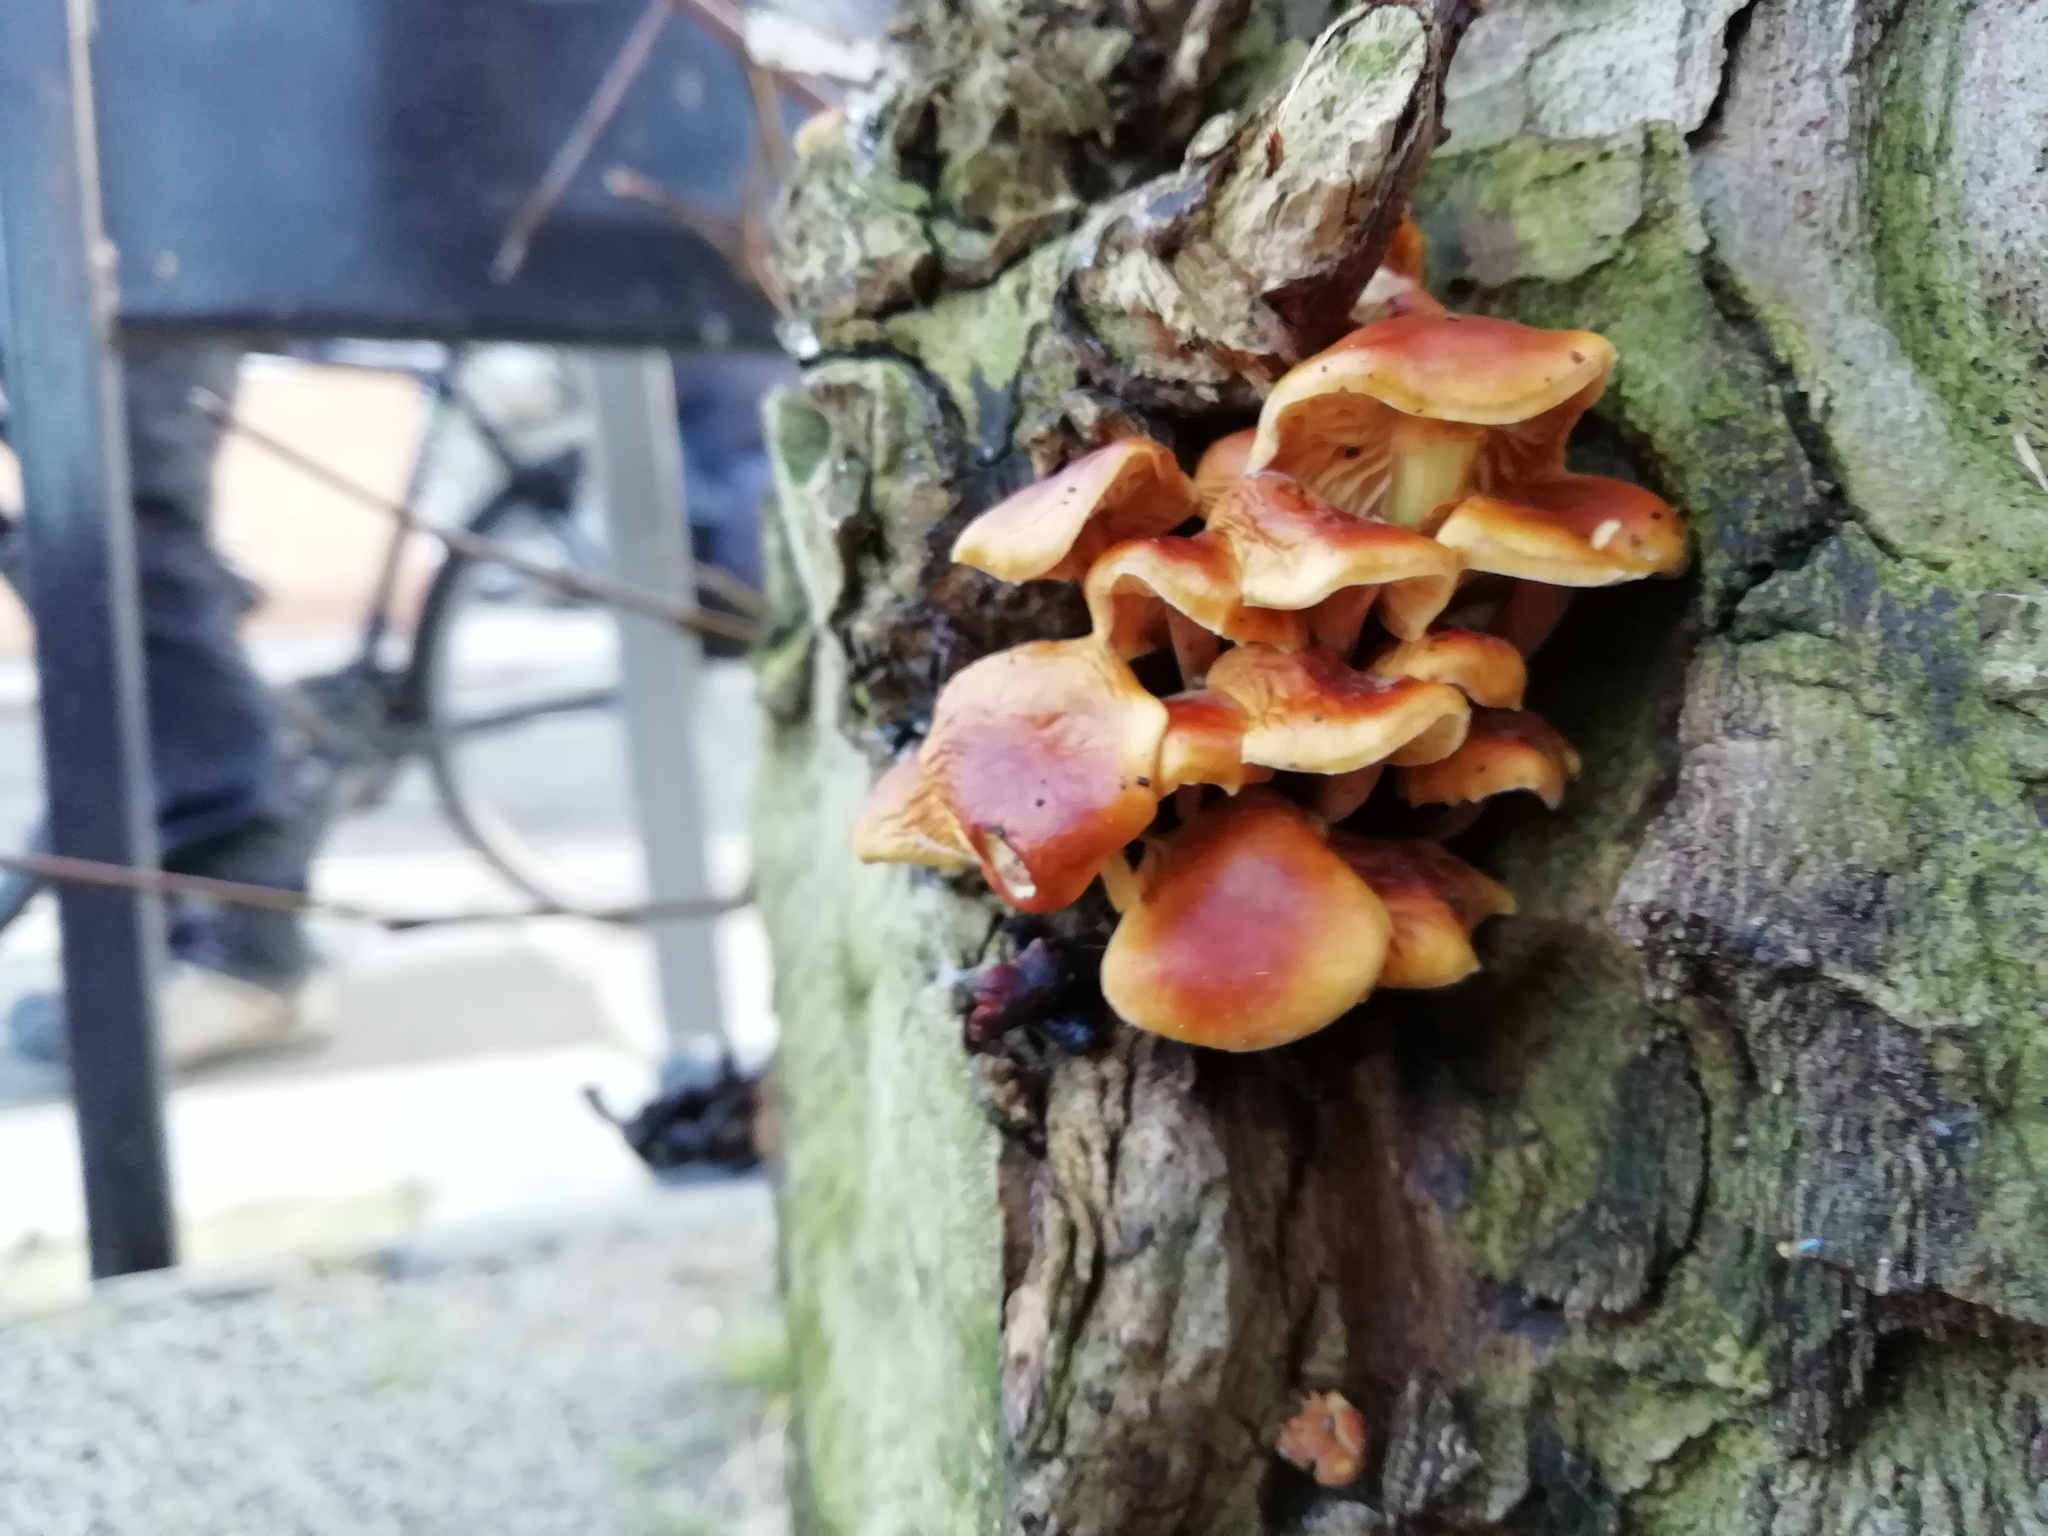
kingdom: Fungi
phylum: Basidiomycota
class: Agaricomycetes
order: Agaricales
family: Physalacriaceae
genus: Flammulina
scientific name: Flammulina
